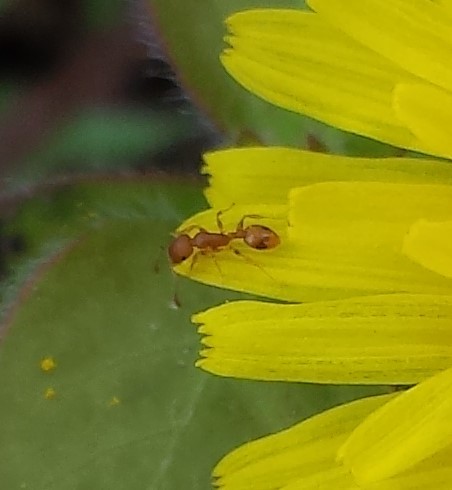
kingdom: Animalia
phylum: Arthropoda
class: Insecta
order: Hymenoptera
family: Formicidae
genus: Temnothorax
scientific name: Temnothorax curvispinosus
